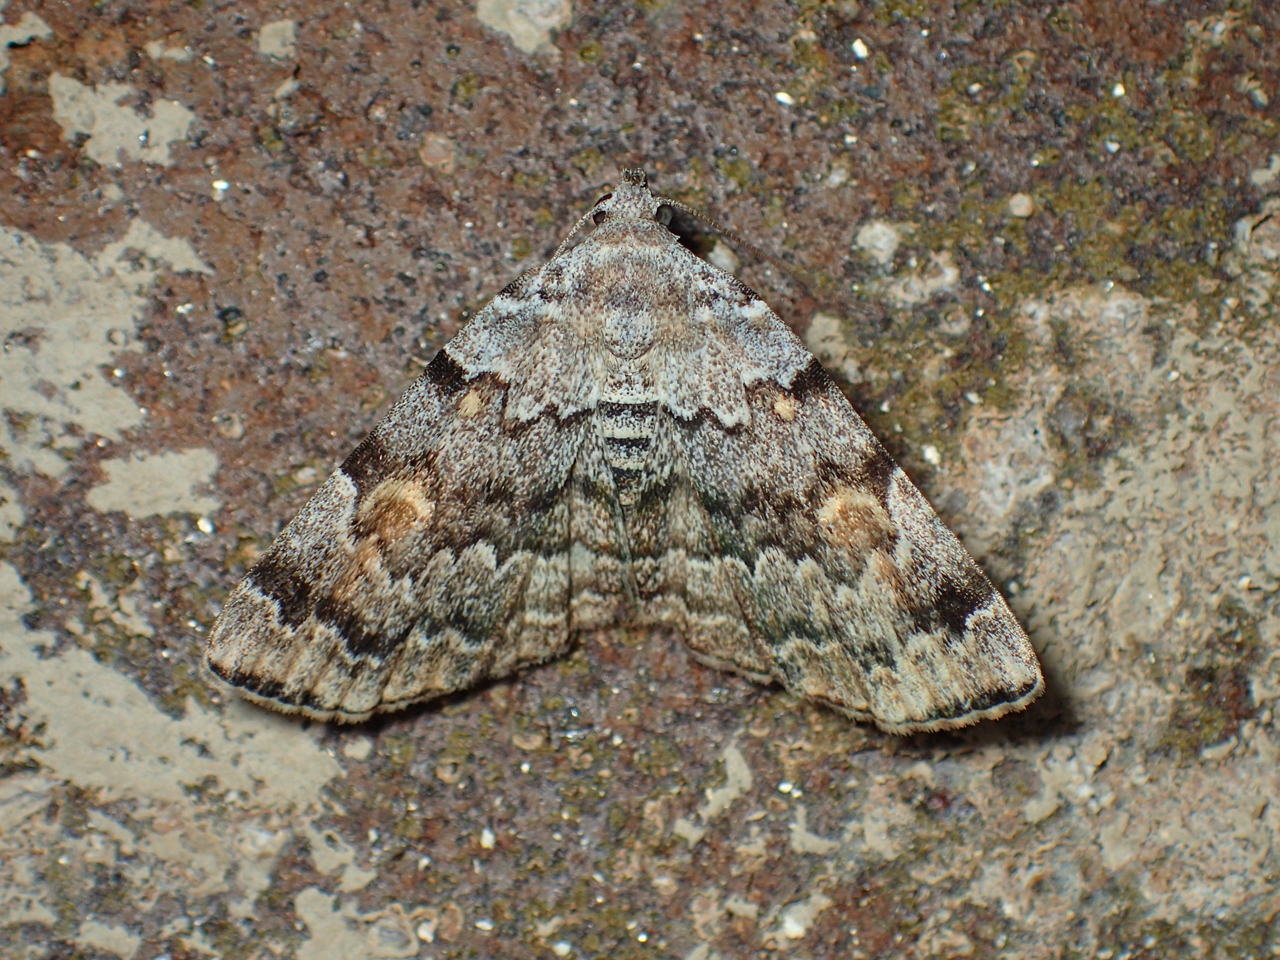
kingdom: Animalia
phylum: Arthropoda
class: Insecta
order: Lepidoptera
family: Erebidae
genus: Idia
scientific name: Idia americalis
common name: American idia moth
